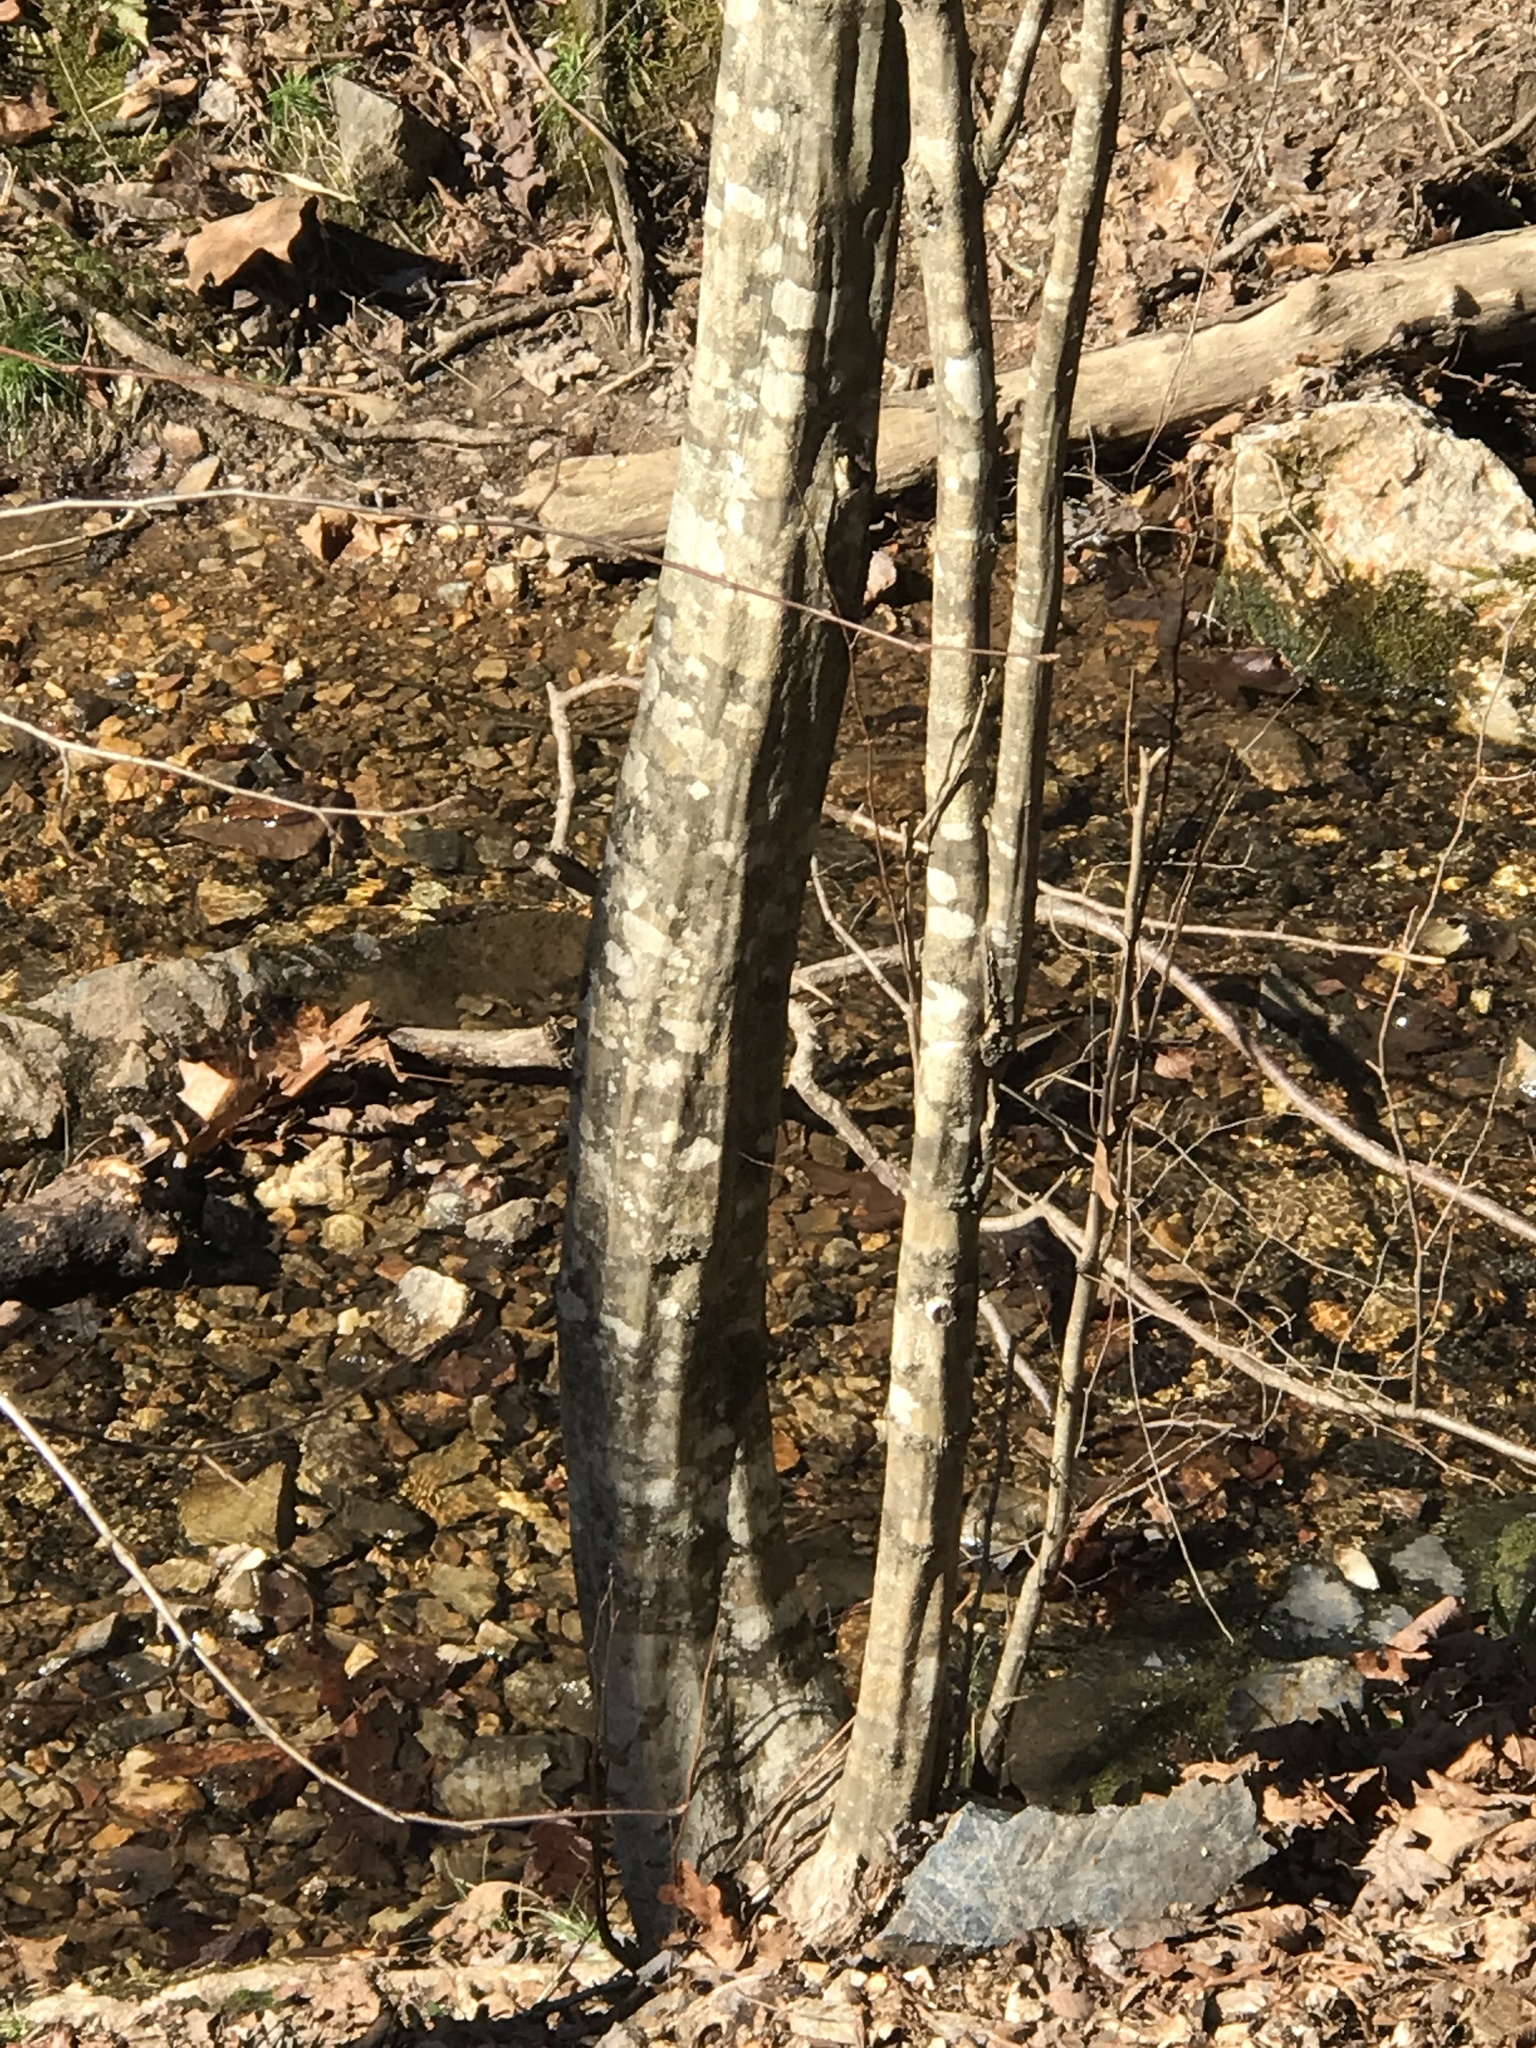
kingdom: Plantae
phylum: Tracheophyta
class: Magnoliopsida
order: Fagales
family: Betulaceae
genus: Carpinus
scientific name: Carpinus caroliniana
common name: American hornbeam
